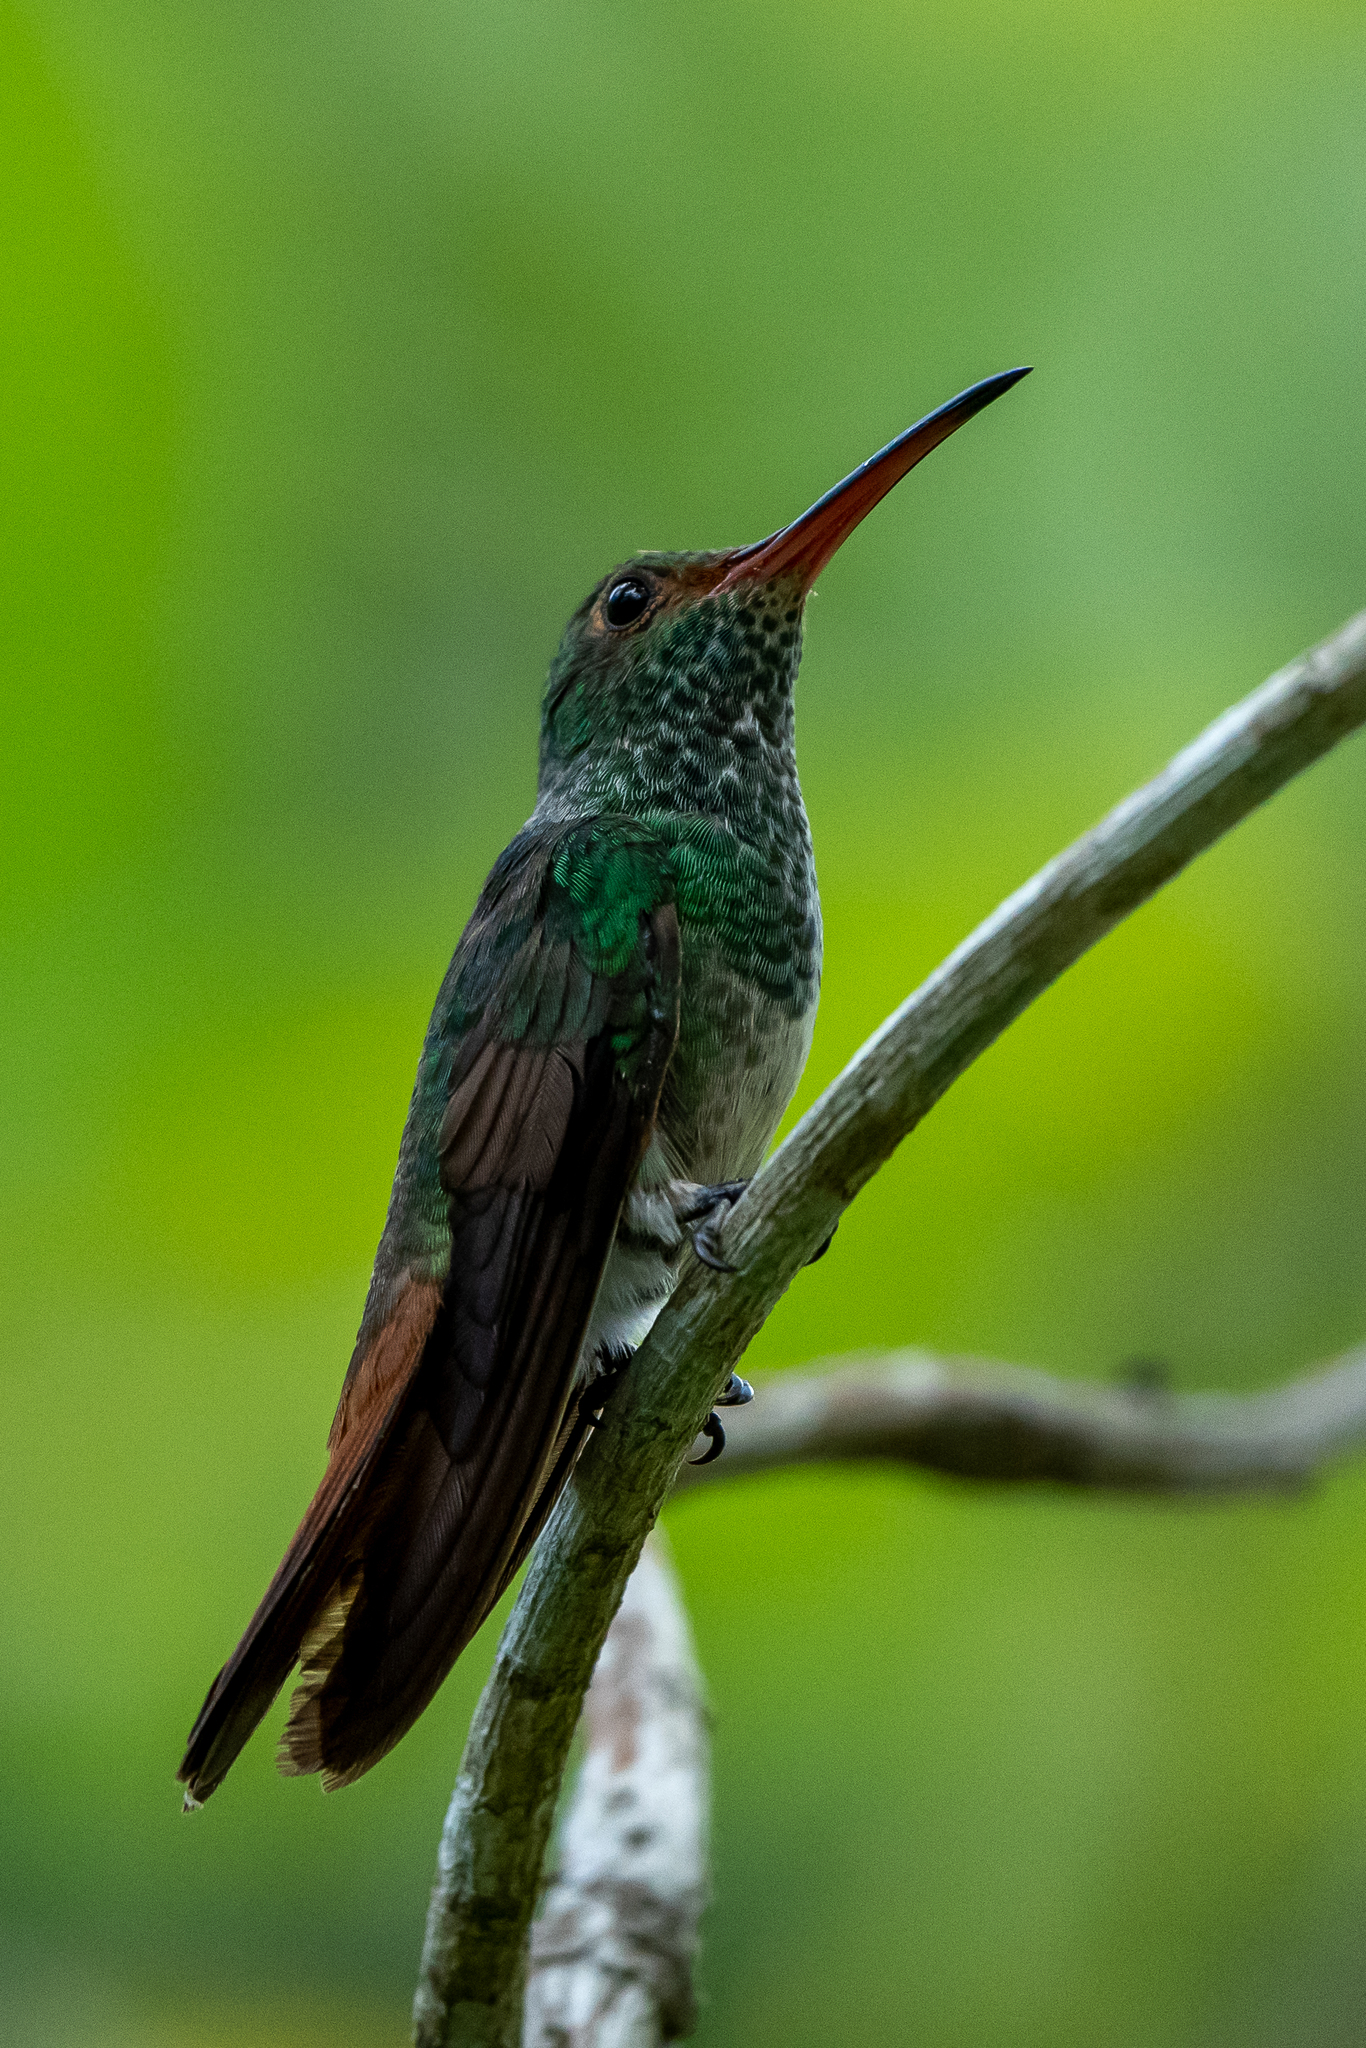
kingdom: Animalia
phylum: Chordata
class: Aves
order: Apodiformes
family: Trochilidae
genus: Amazilia
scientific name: Amazilia tzacatl
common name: Rufous-tailed hummingbird
